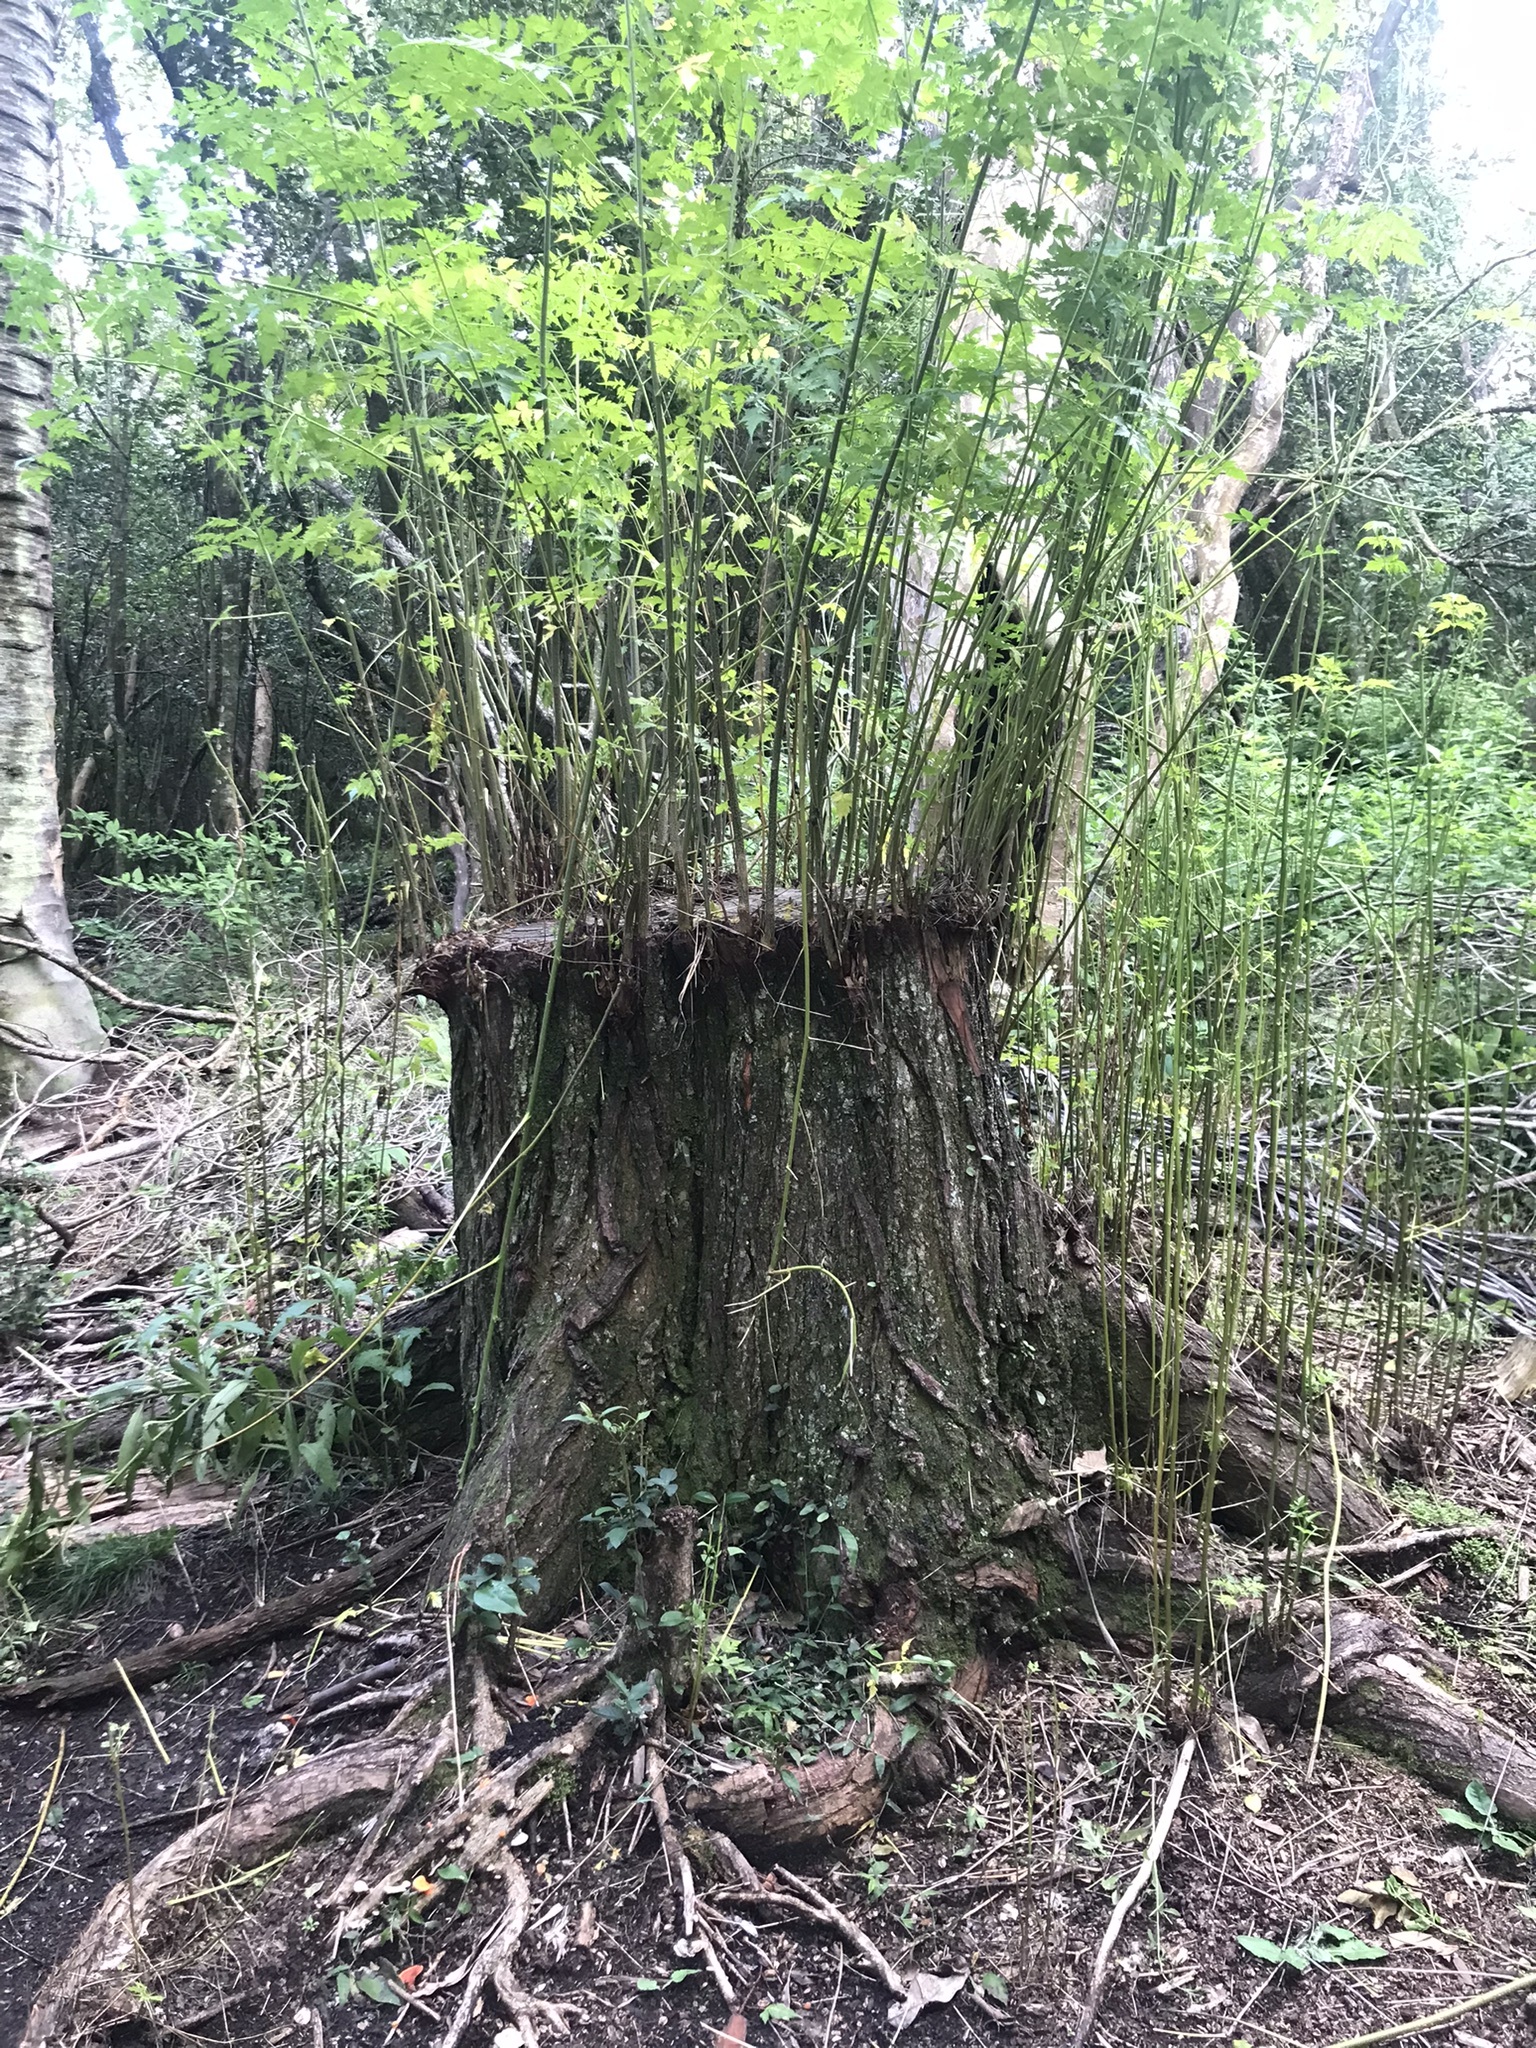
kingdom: Plantae
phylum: Tracheophyta
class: Magnoliopsida
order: Sapindales
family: Meliaceae
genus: Melia
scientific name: Melia azedarach
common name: Chinaberrytree
